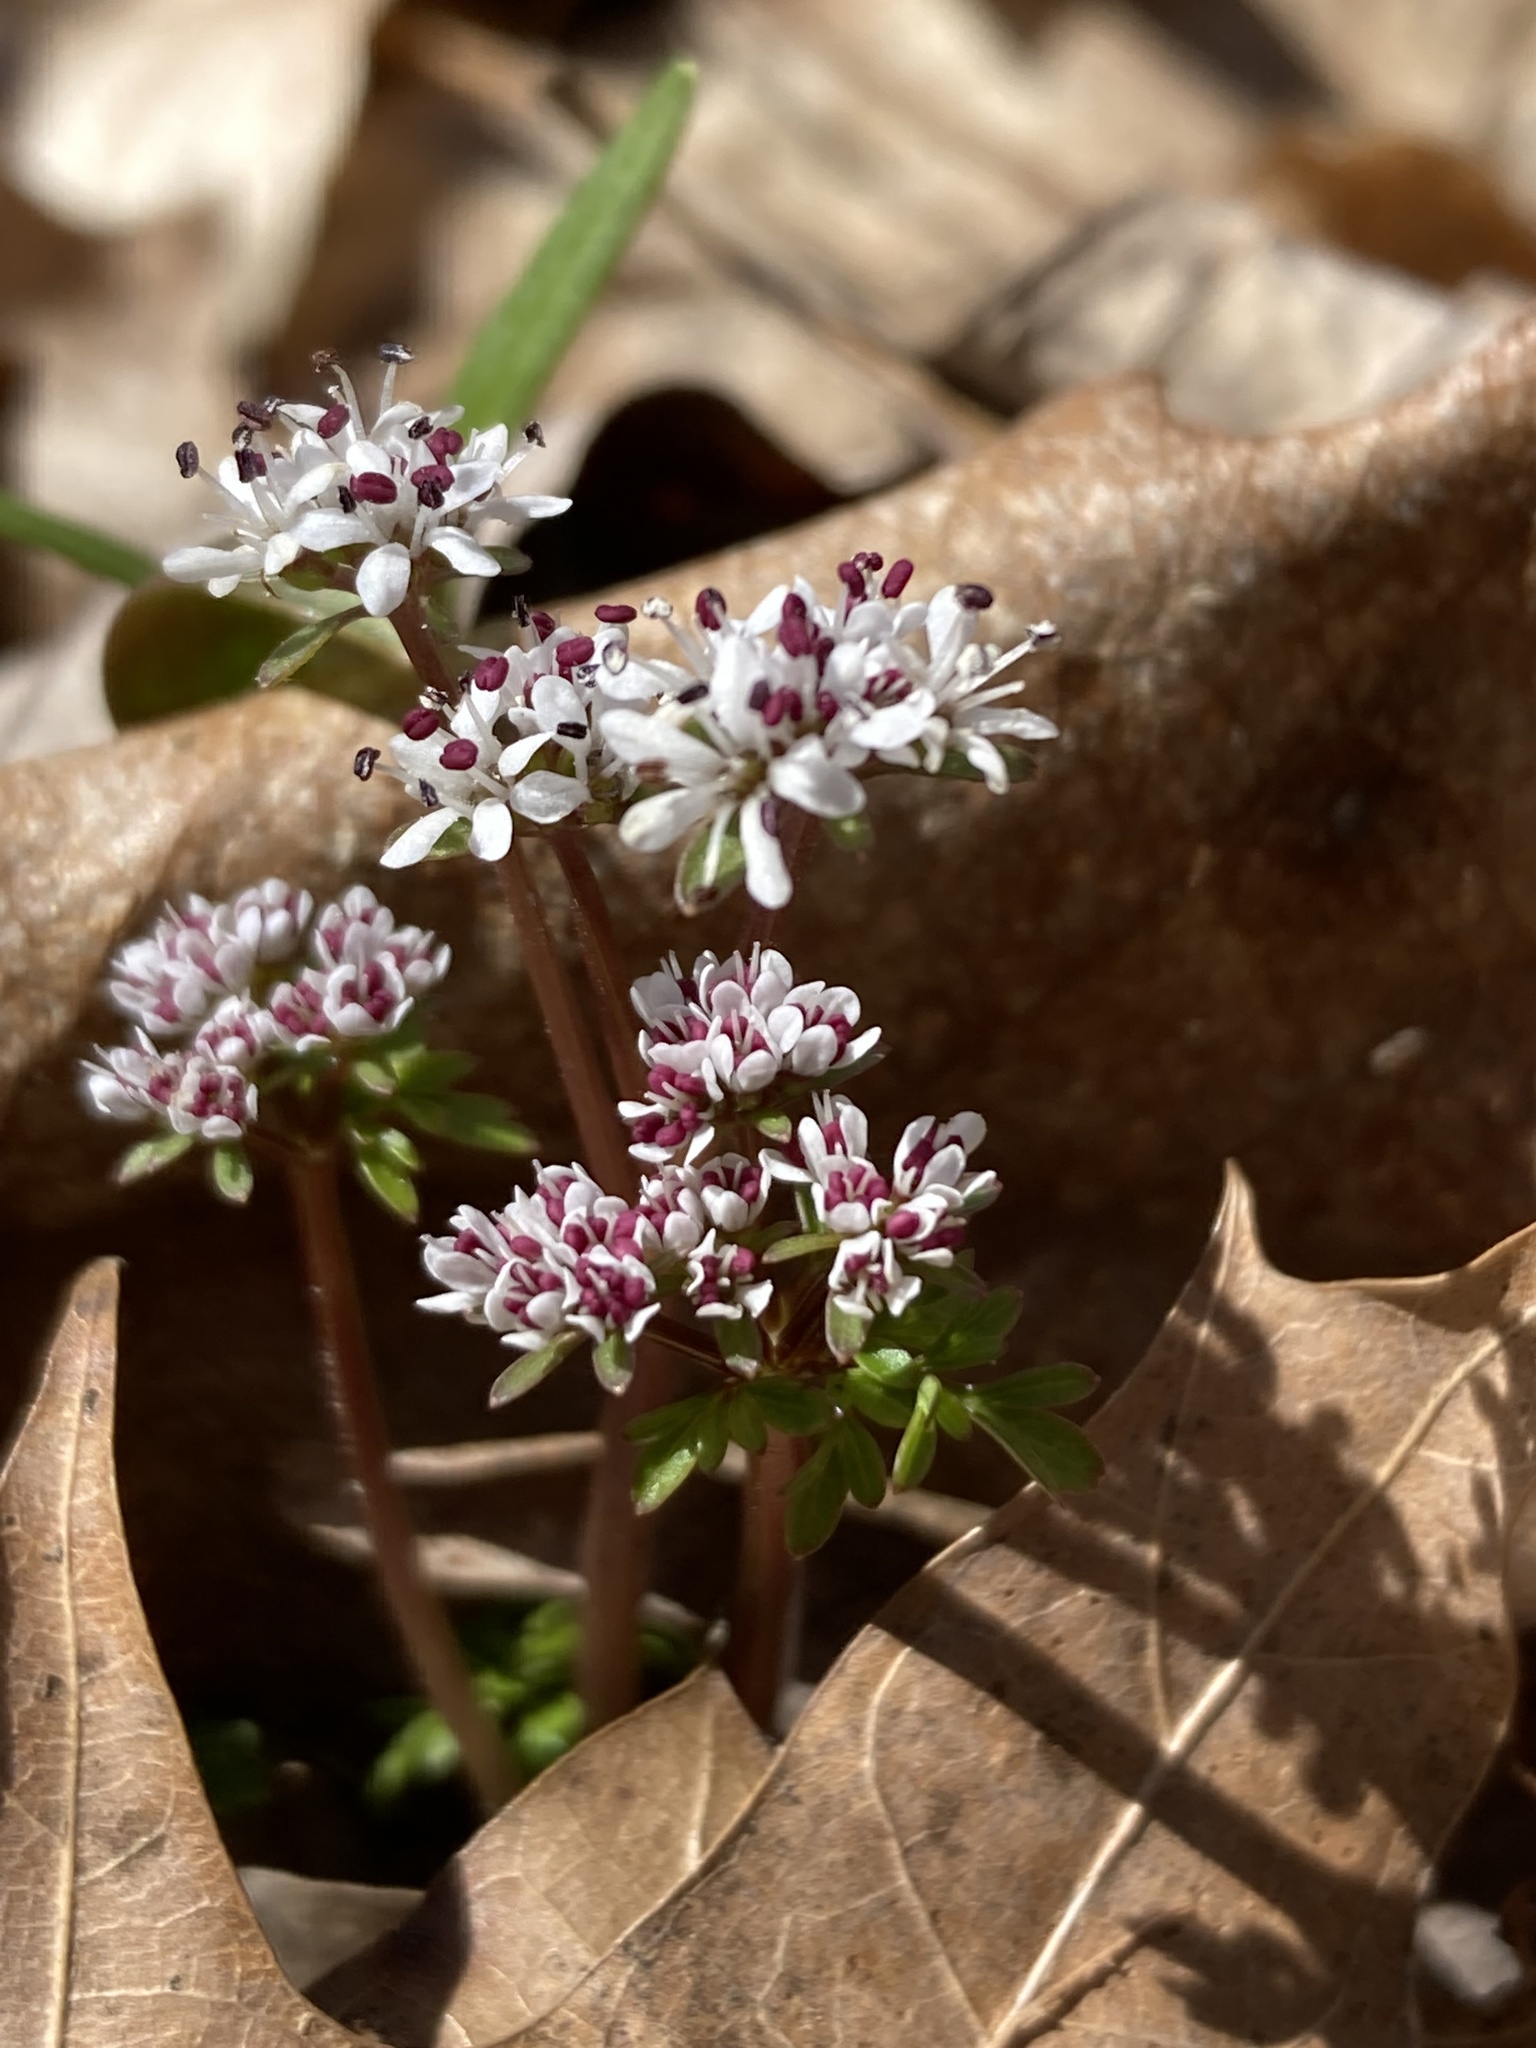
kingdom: Plantae
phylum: Tracheophyta
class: Magnoliopsida
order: Apiales
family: Apiaceae
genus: Erigenia
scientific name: Erigenia bulbosa
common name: Pepper-and-salt
